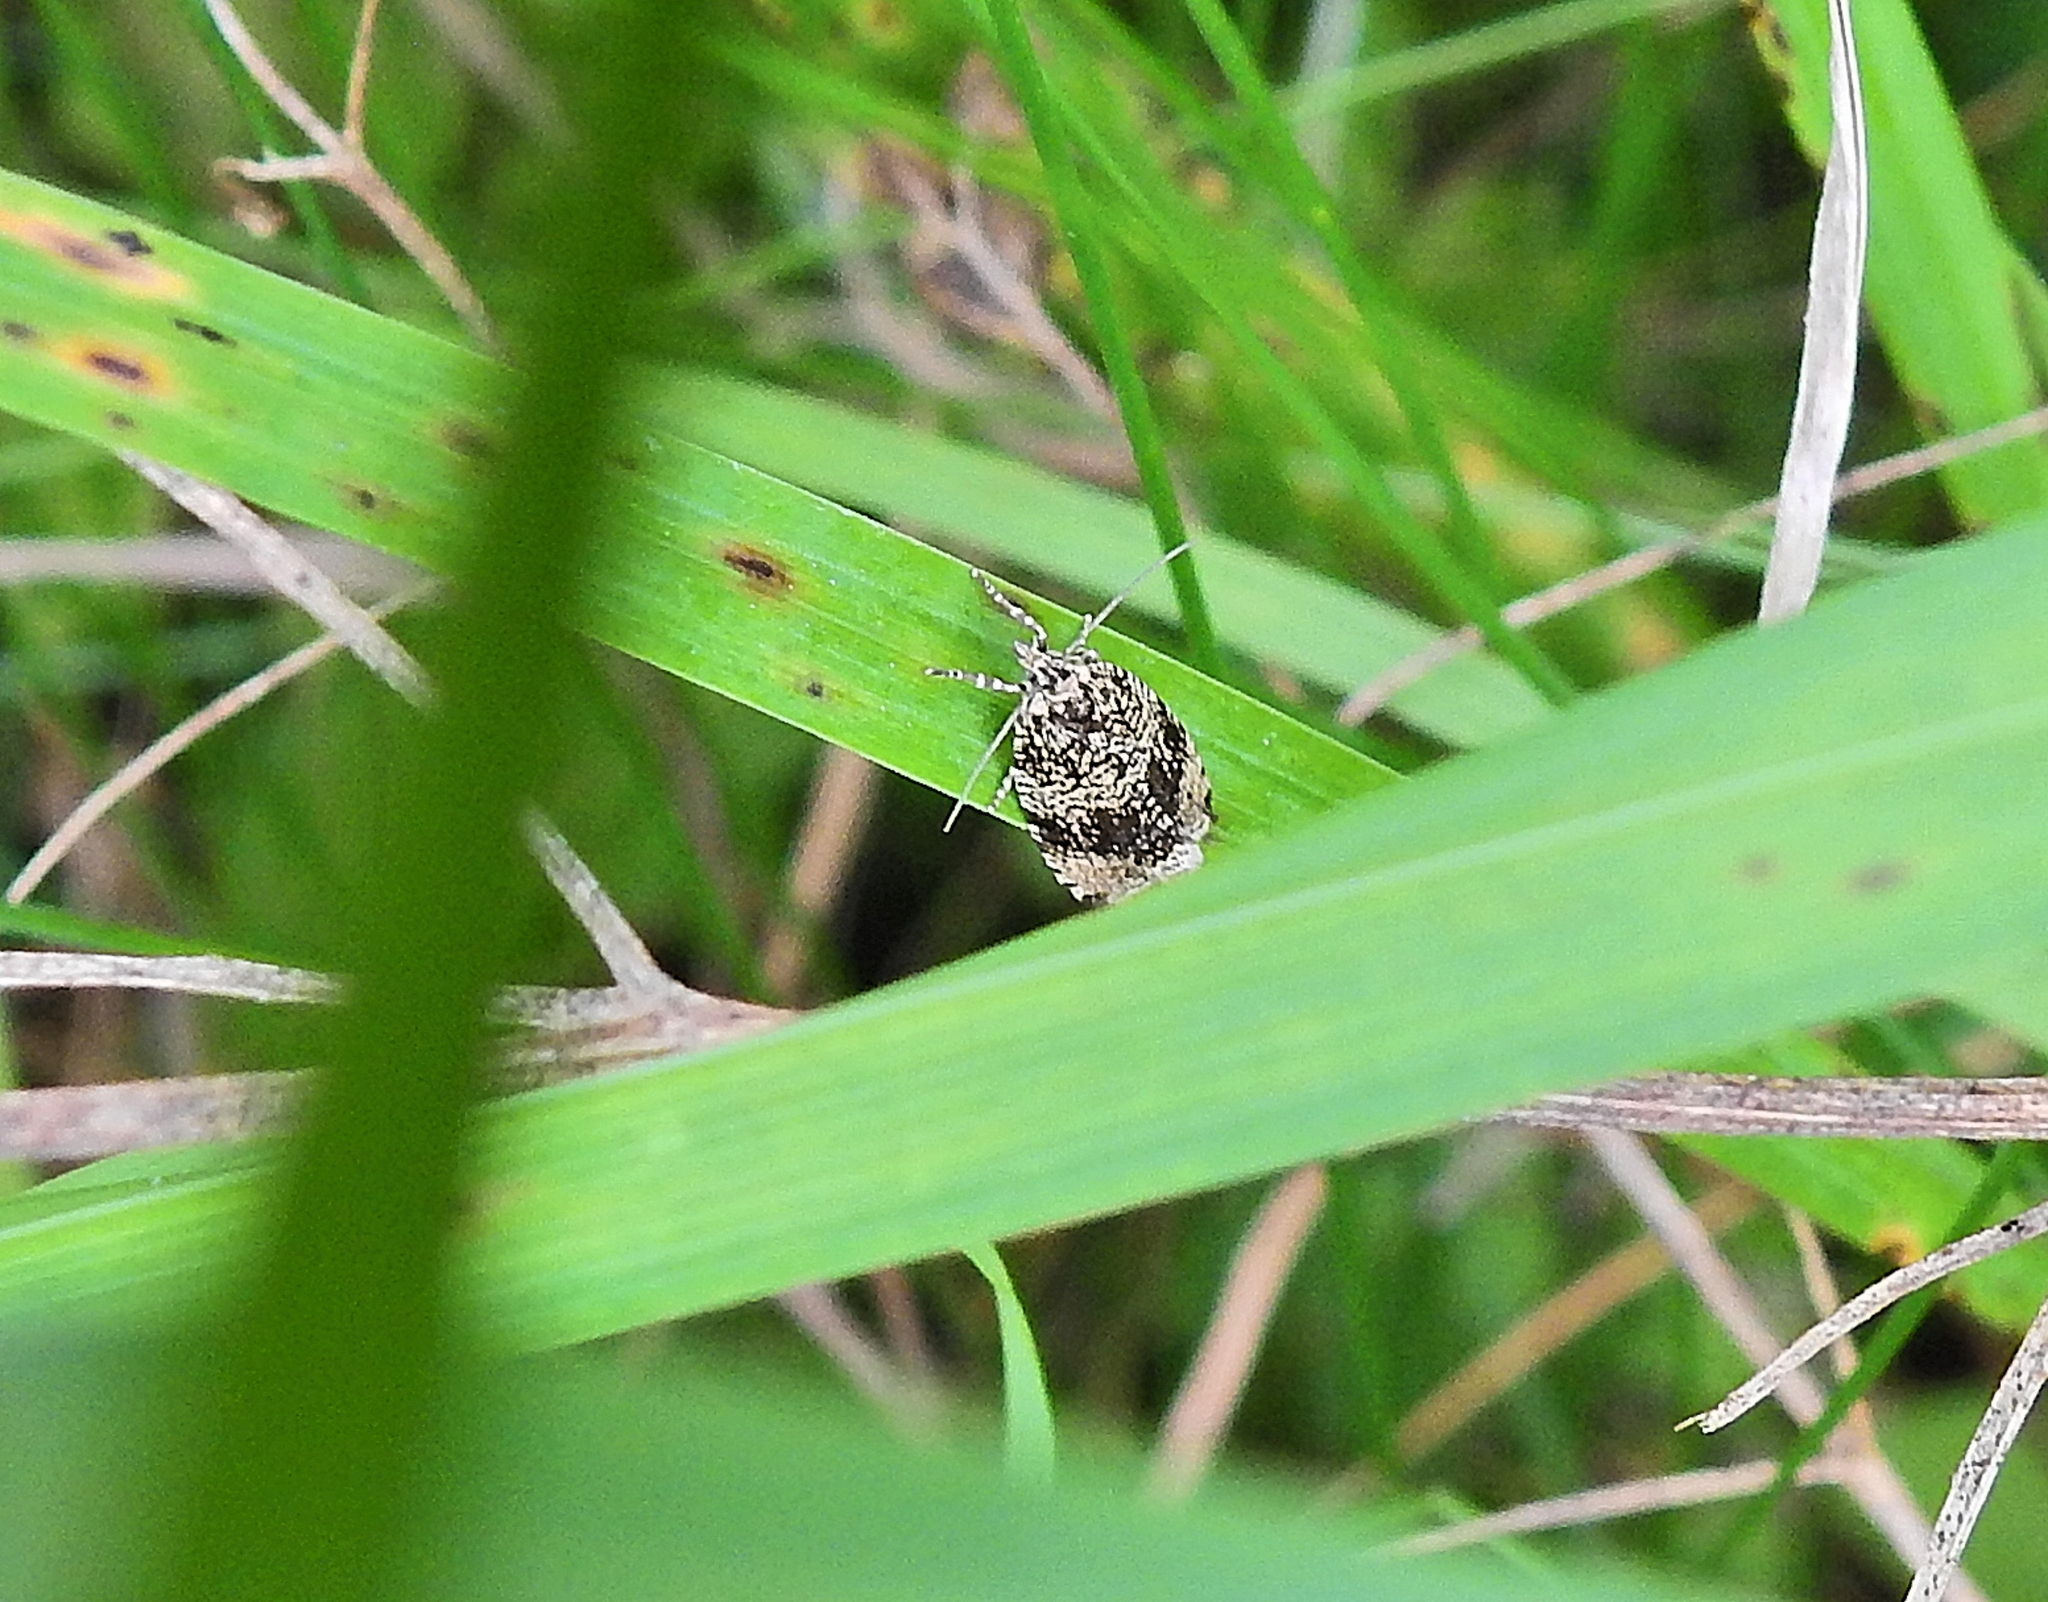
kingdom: Animalia
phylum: Arthropoda
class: Insecta
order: Lepidoptera
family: Tortricidae
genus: Syricoris
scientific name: Syricoris lacunana
